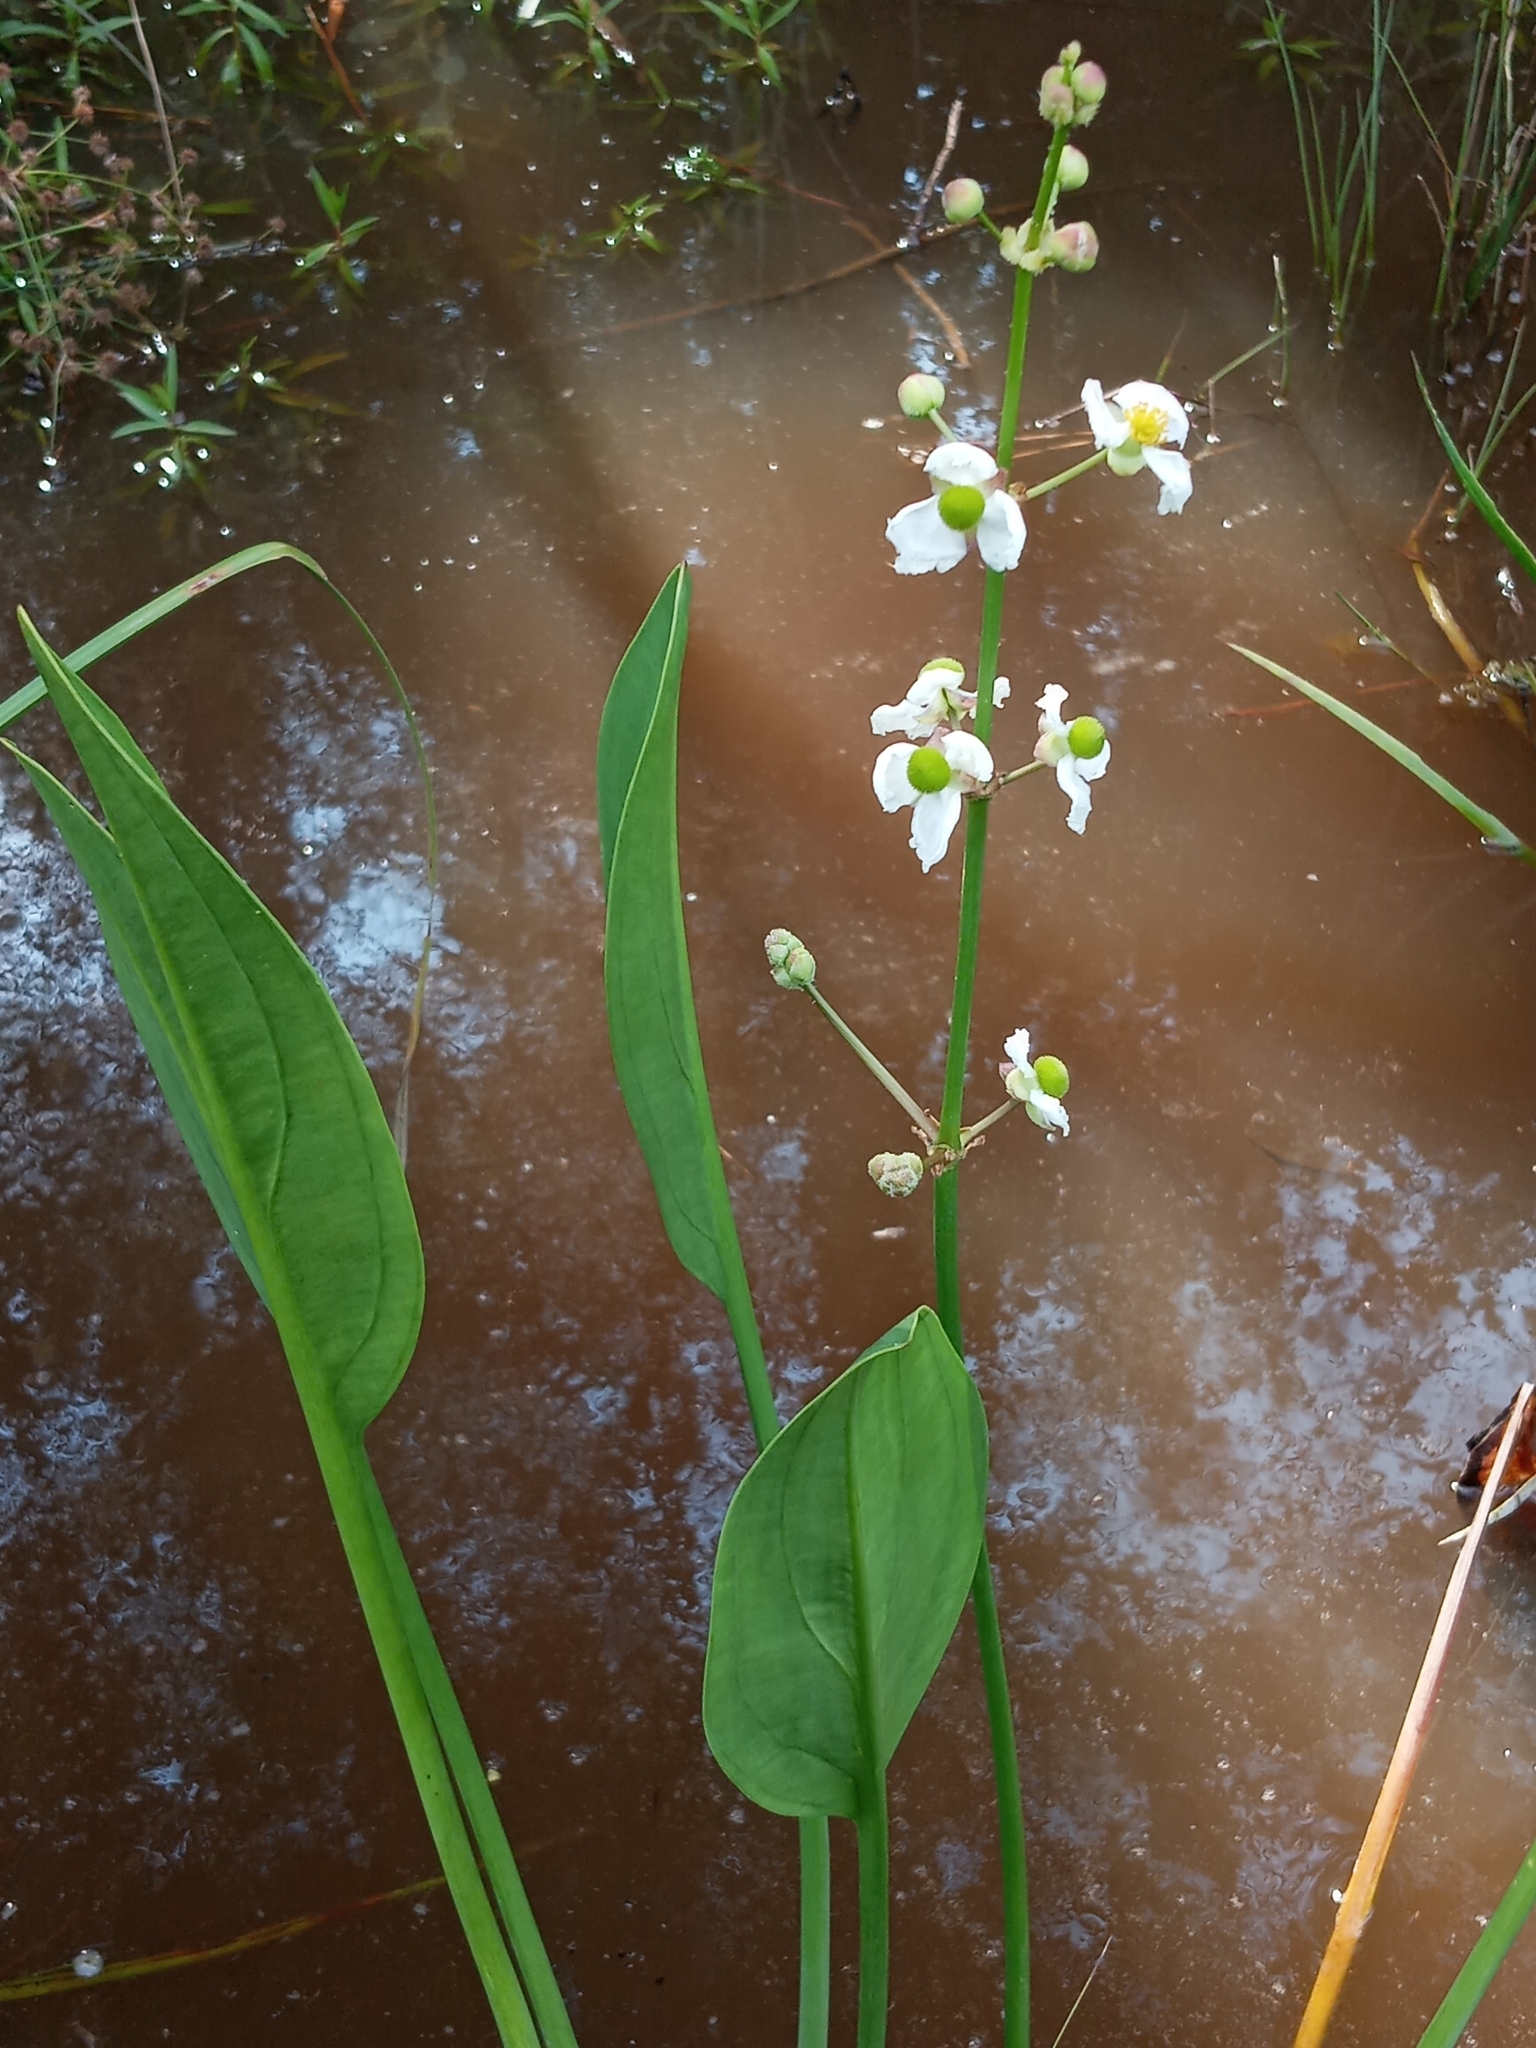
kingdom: Plantae
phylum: Tracheophyta
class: Liliopsida
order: Alismatales
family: Alismataceae
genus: Sagittaria
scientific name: Sagittaria lancifolia
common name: Lance-leaf arrowhead
